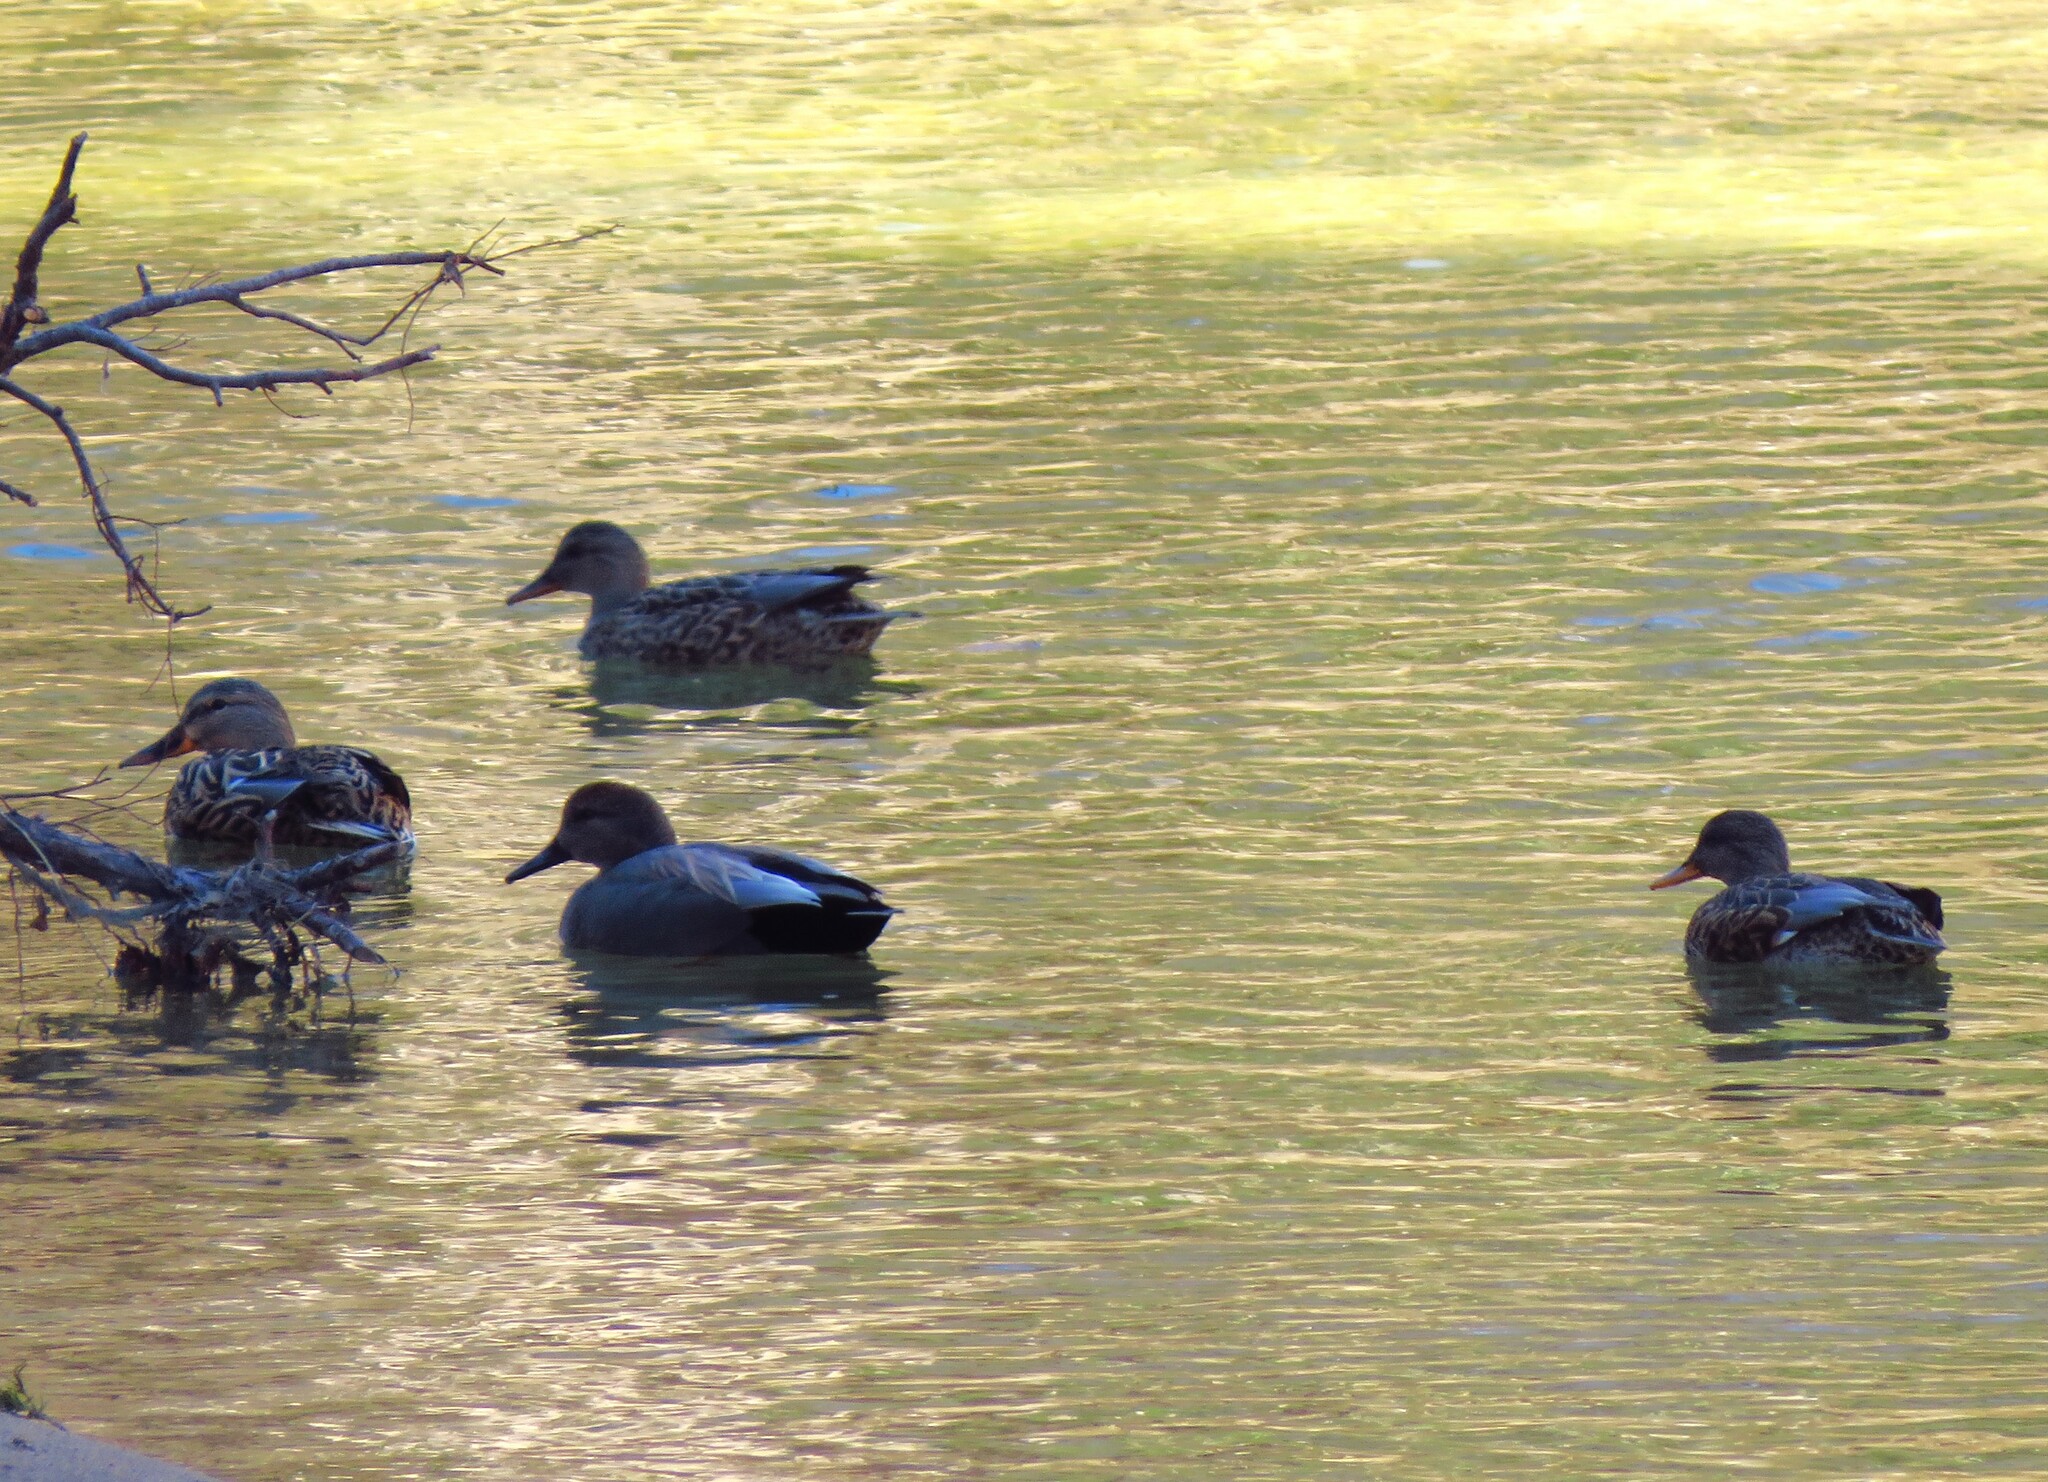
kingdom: Animalia
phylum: Chordata
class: Aves
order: Anseriformes
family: Anatidae
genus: Mareca
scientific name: Mareca strepera
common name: Gadwall
